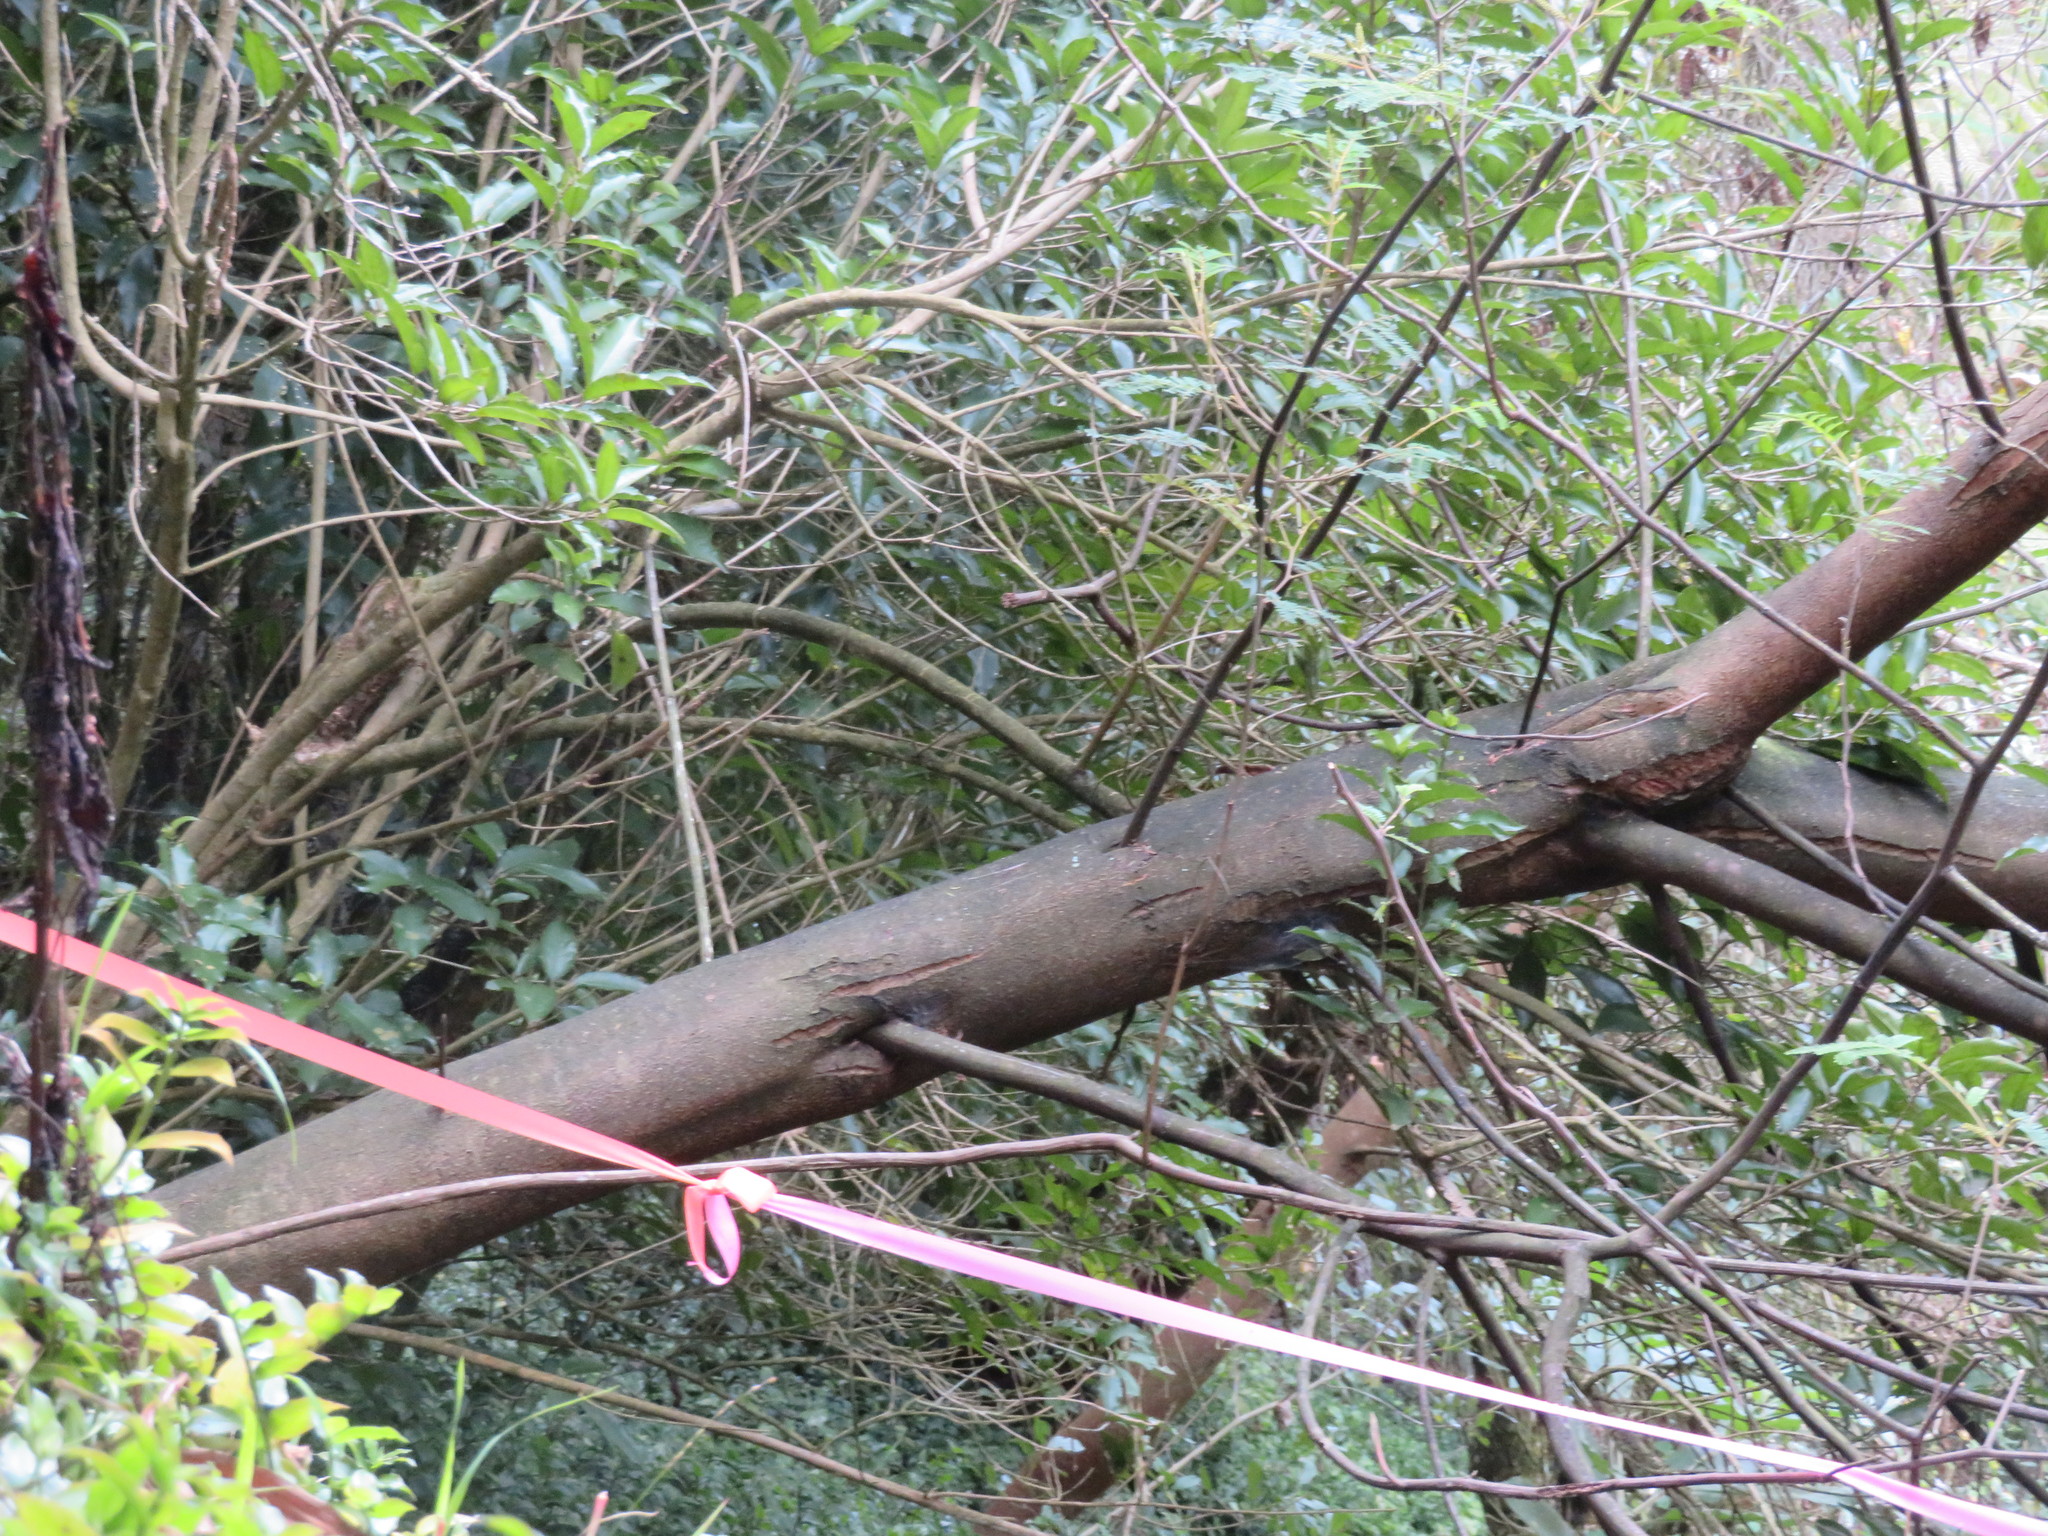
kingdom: Plantae
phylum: Tracheophyta
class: Magnoliopsida
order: Fabales
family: Fabaceae
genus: Paraserianthes
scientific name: Paraserianthes lophantha
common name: Plume albizia
